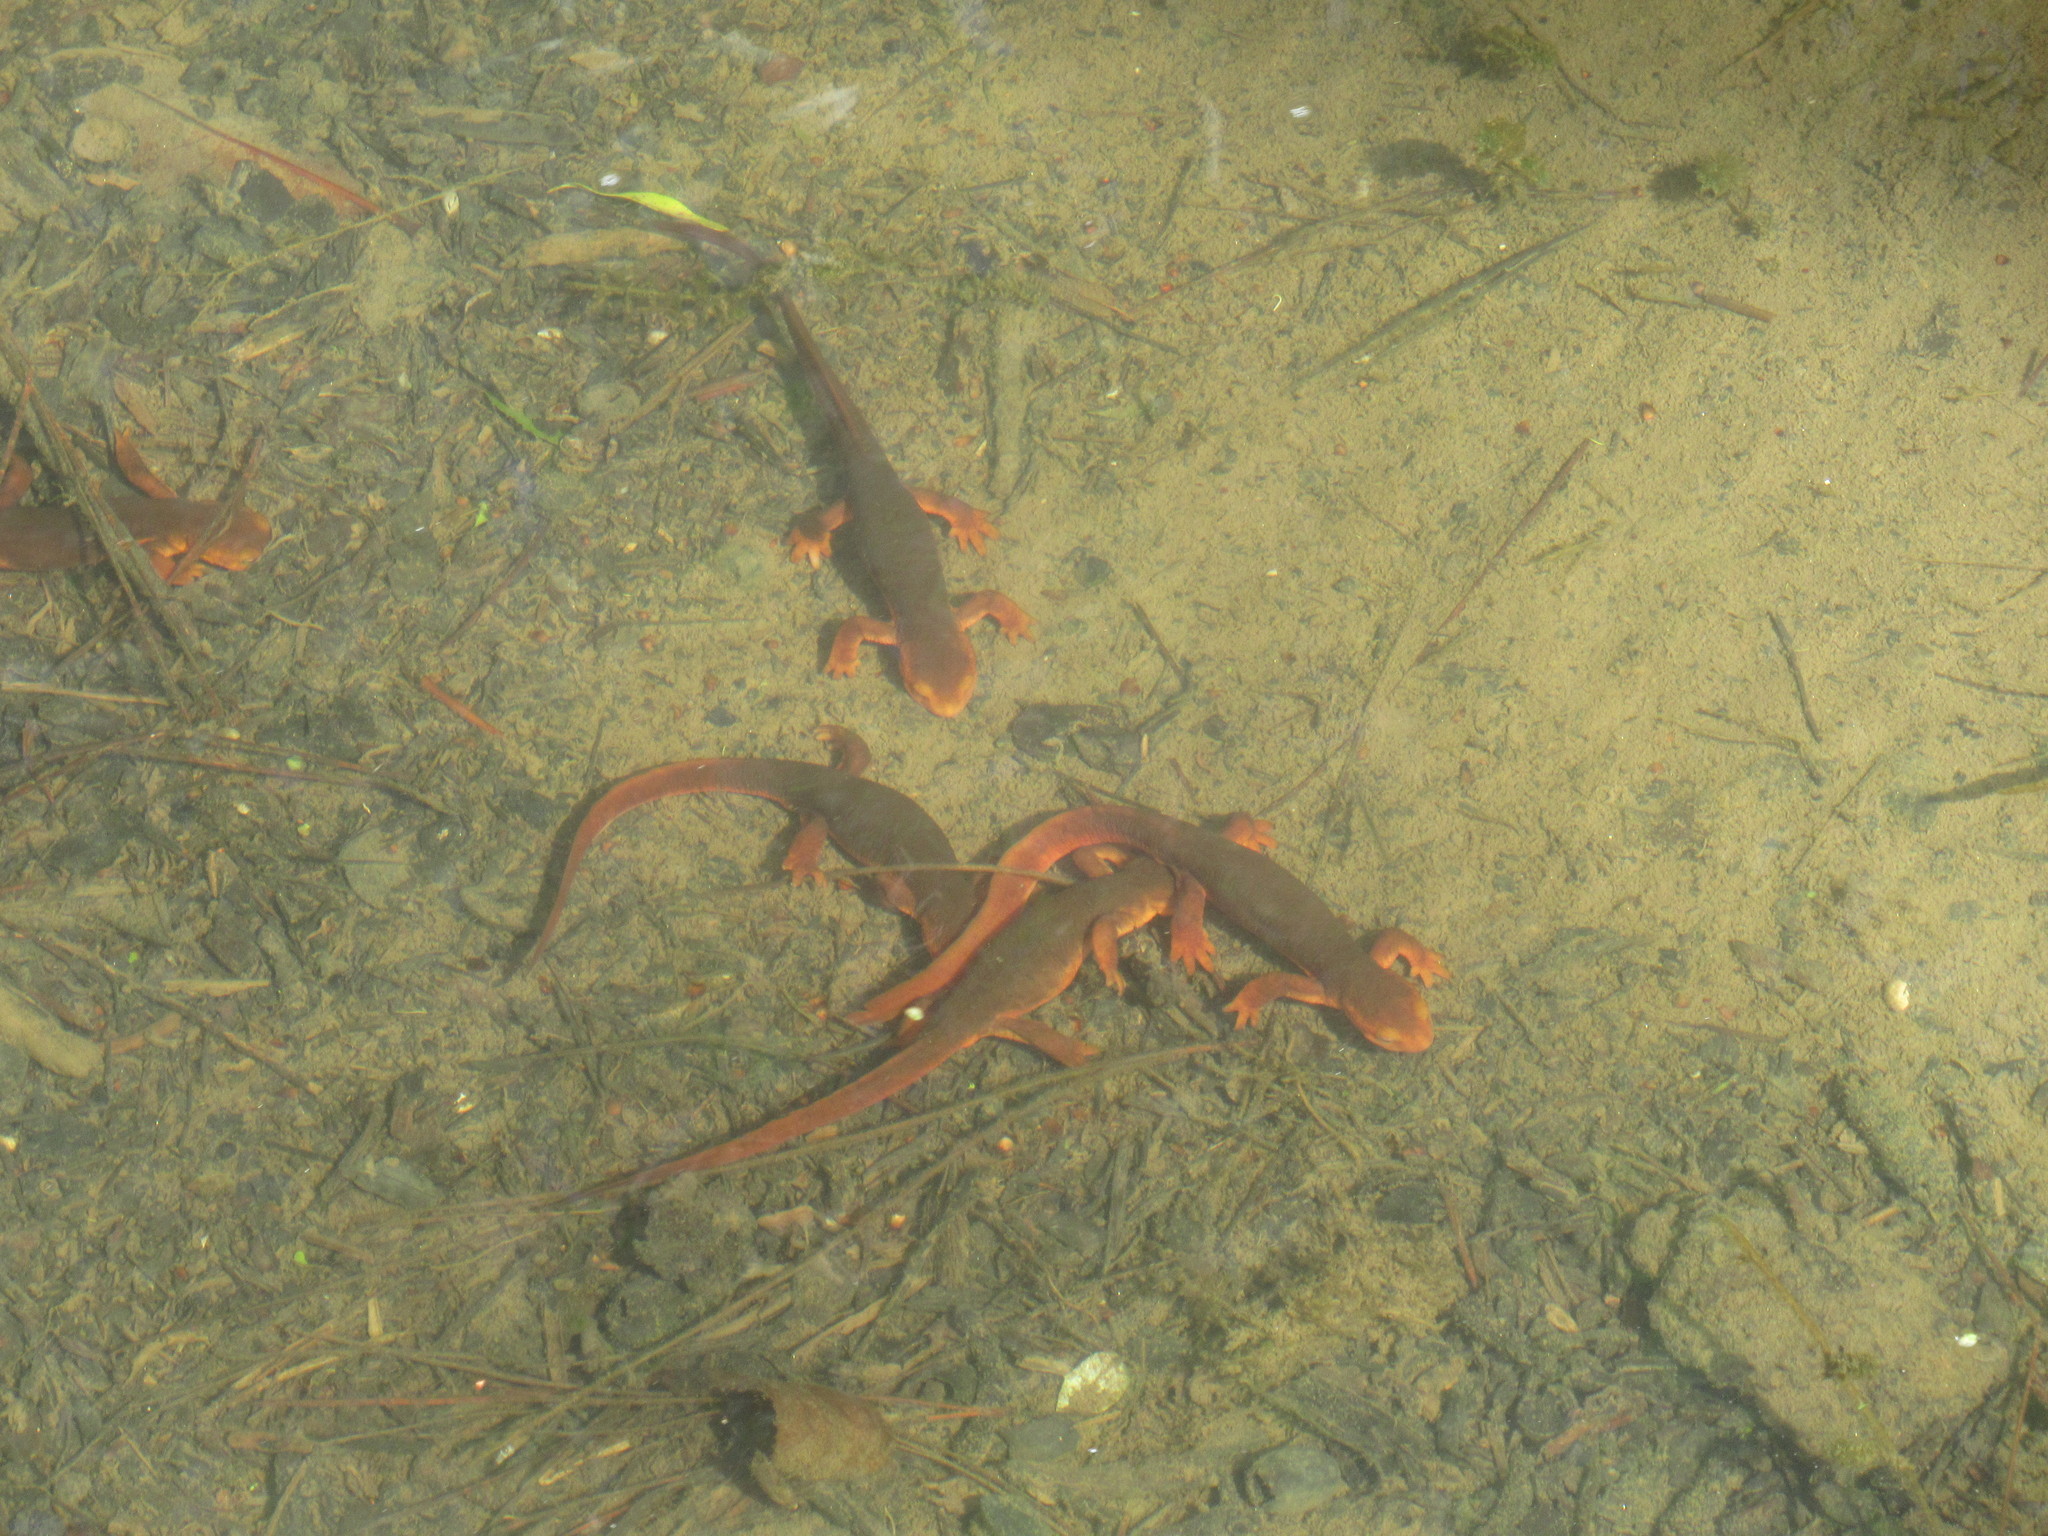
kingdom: Animalia
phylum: Chordata
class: Amphibia
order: Caudata
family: Salamandridae
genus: Taricha
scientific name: Taricha sierrae
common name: Sierra newt
